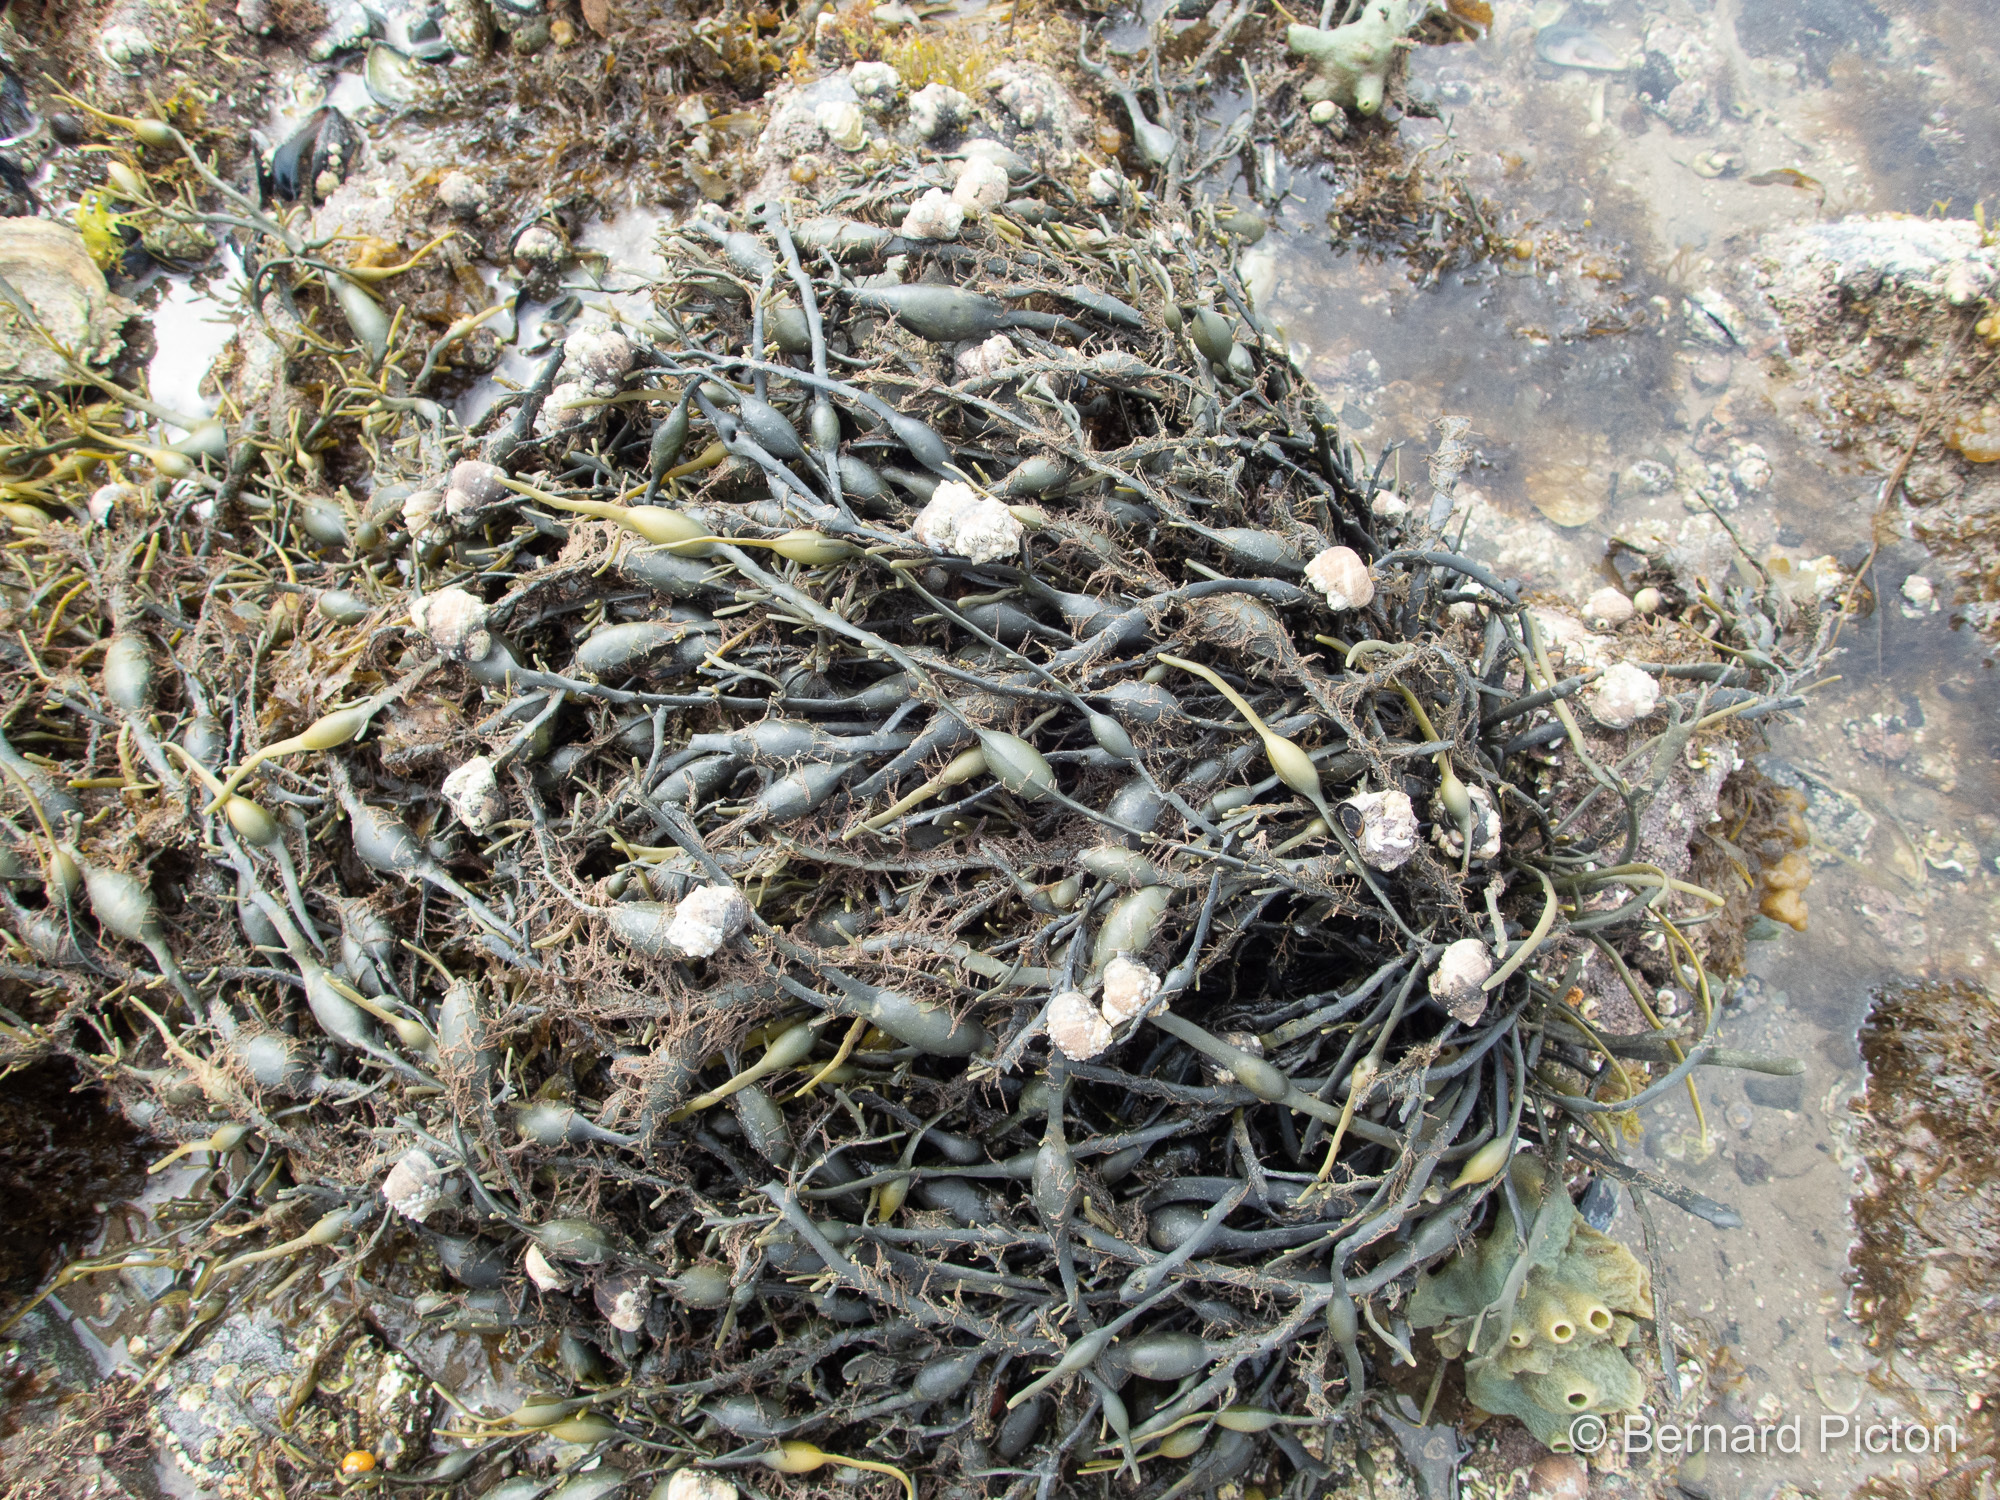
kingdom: Chromista
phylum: Ochrophyta
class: Phaeophyceae
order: Fucales
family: Fucaceae
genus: Ascophyllum
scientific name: Ascophyllum nodosum
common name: Knotted wrack
